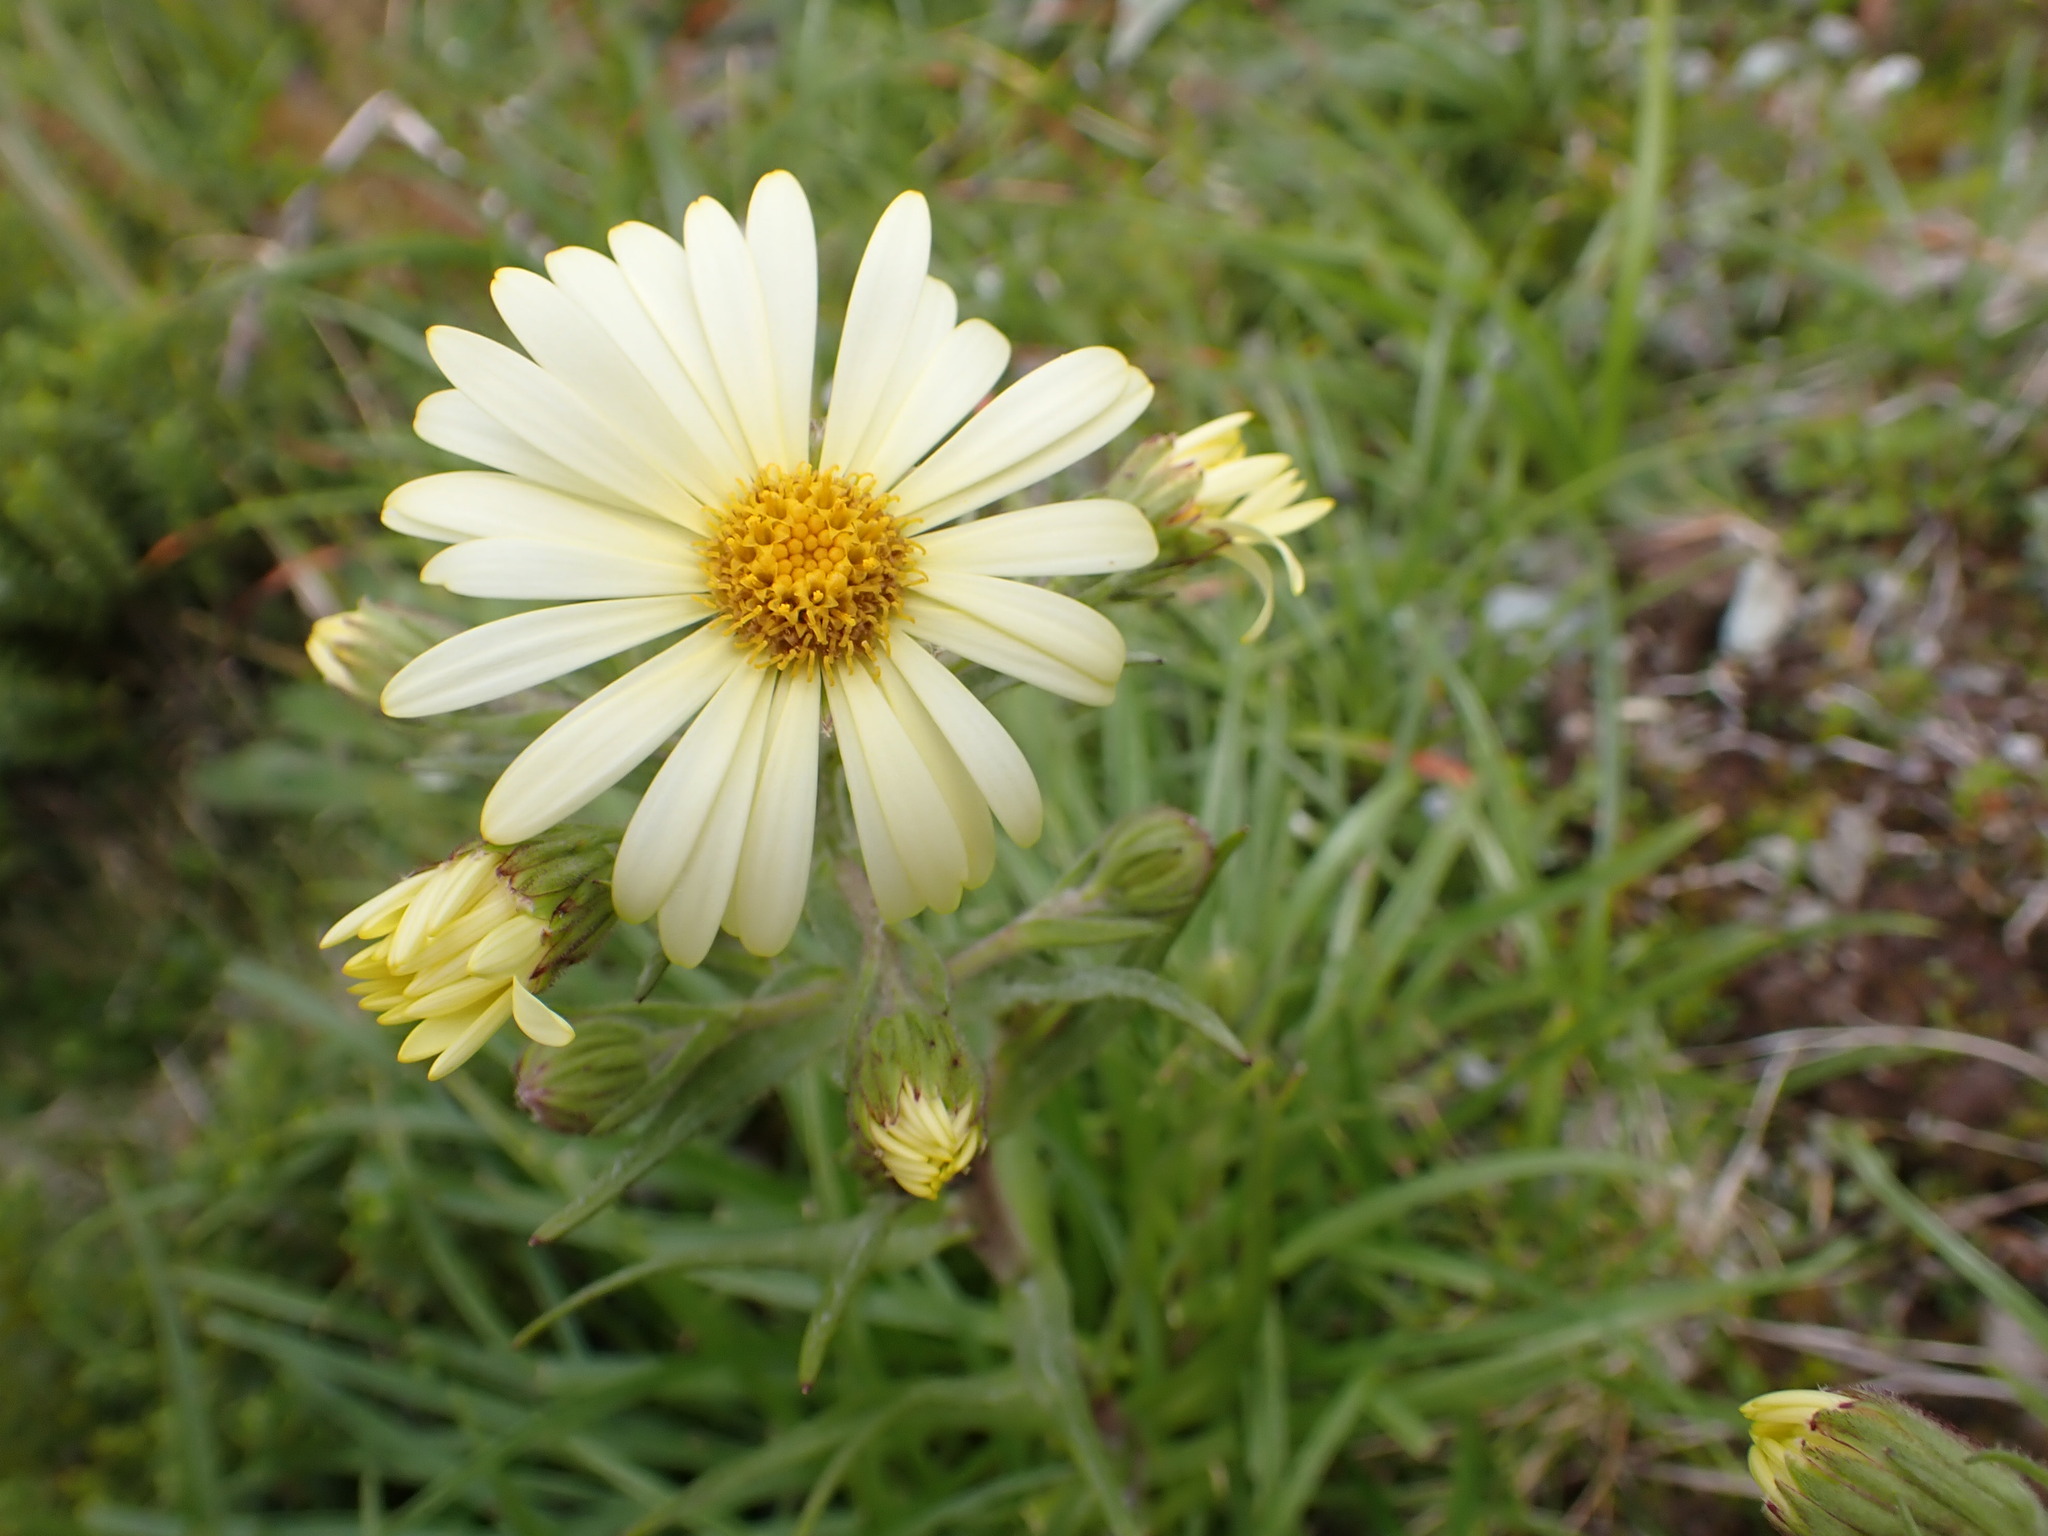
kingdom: Plantae
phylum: Tracheophyta
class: Magnoliopsida
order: Asterales
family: Asteraceae
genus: Dolichoglottis
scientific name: Dolichoglottis
